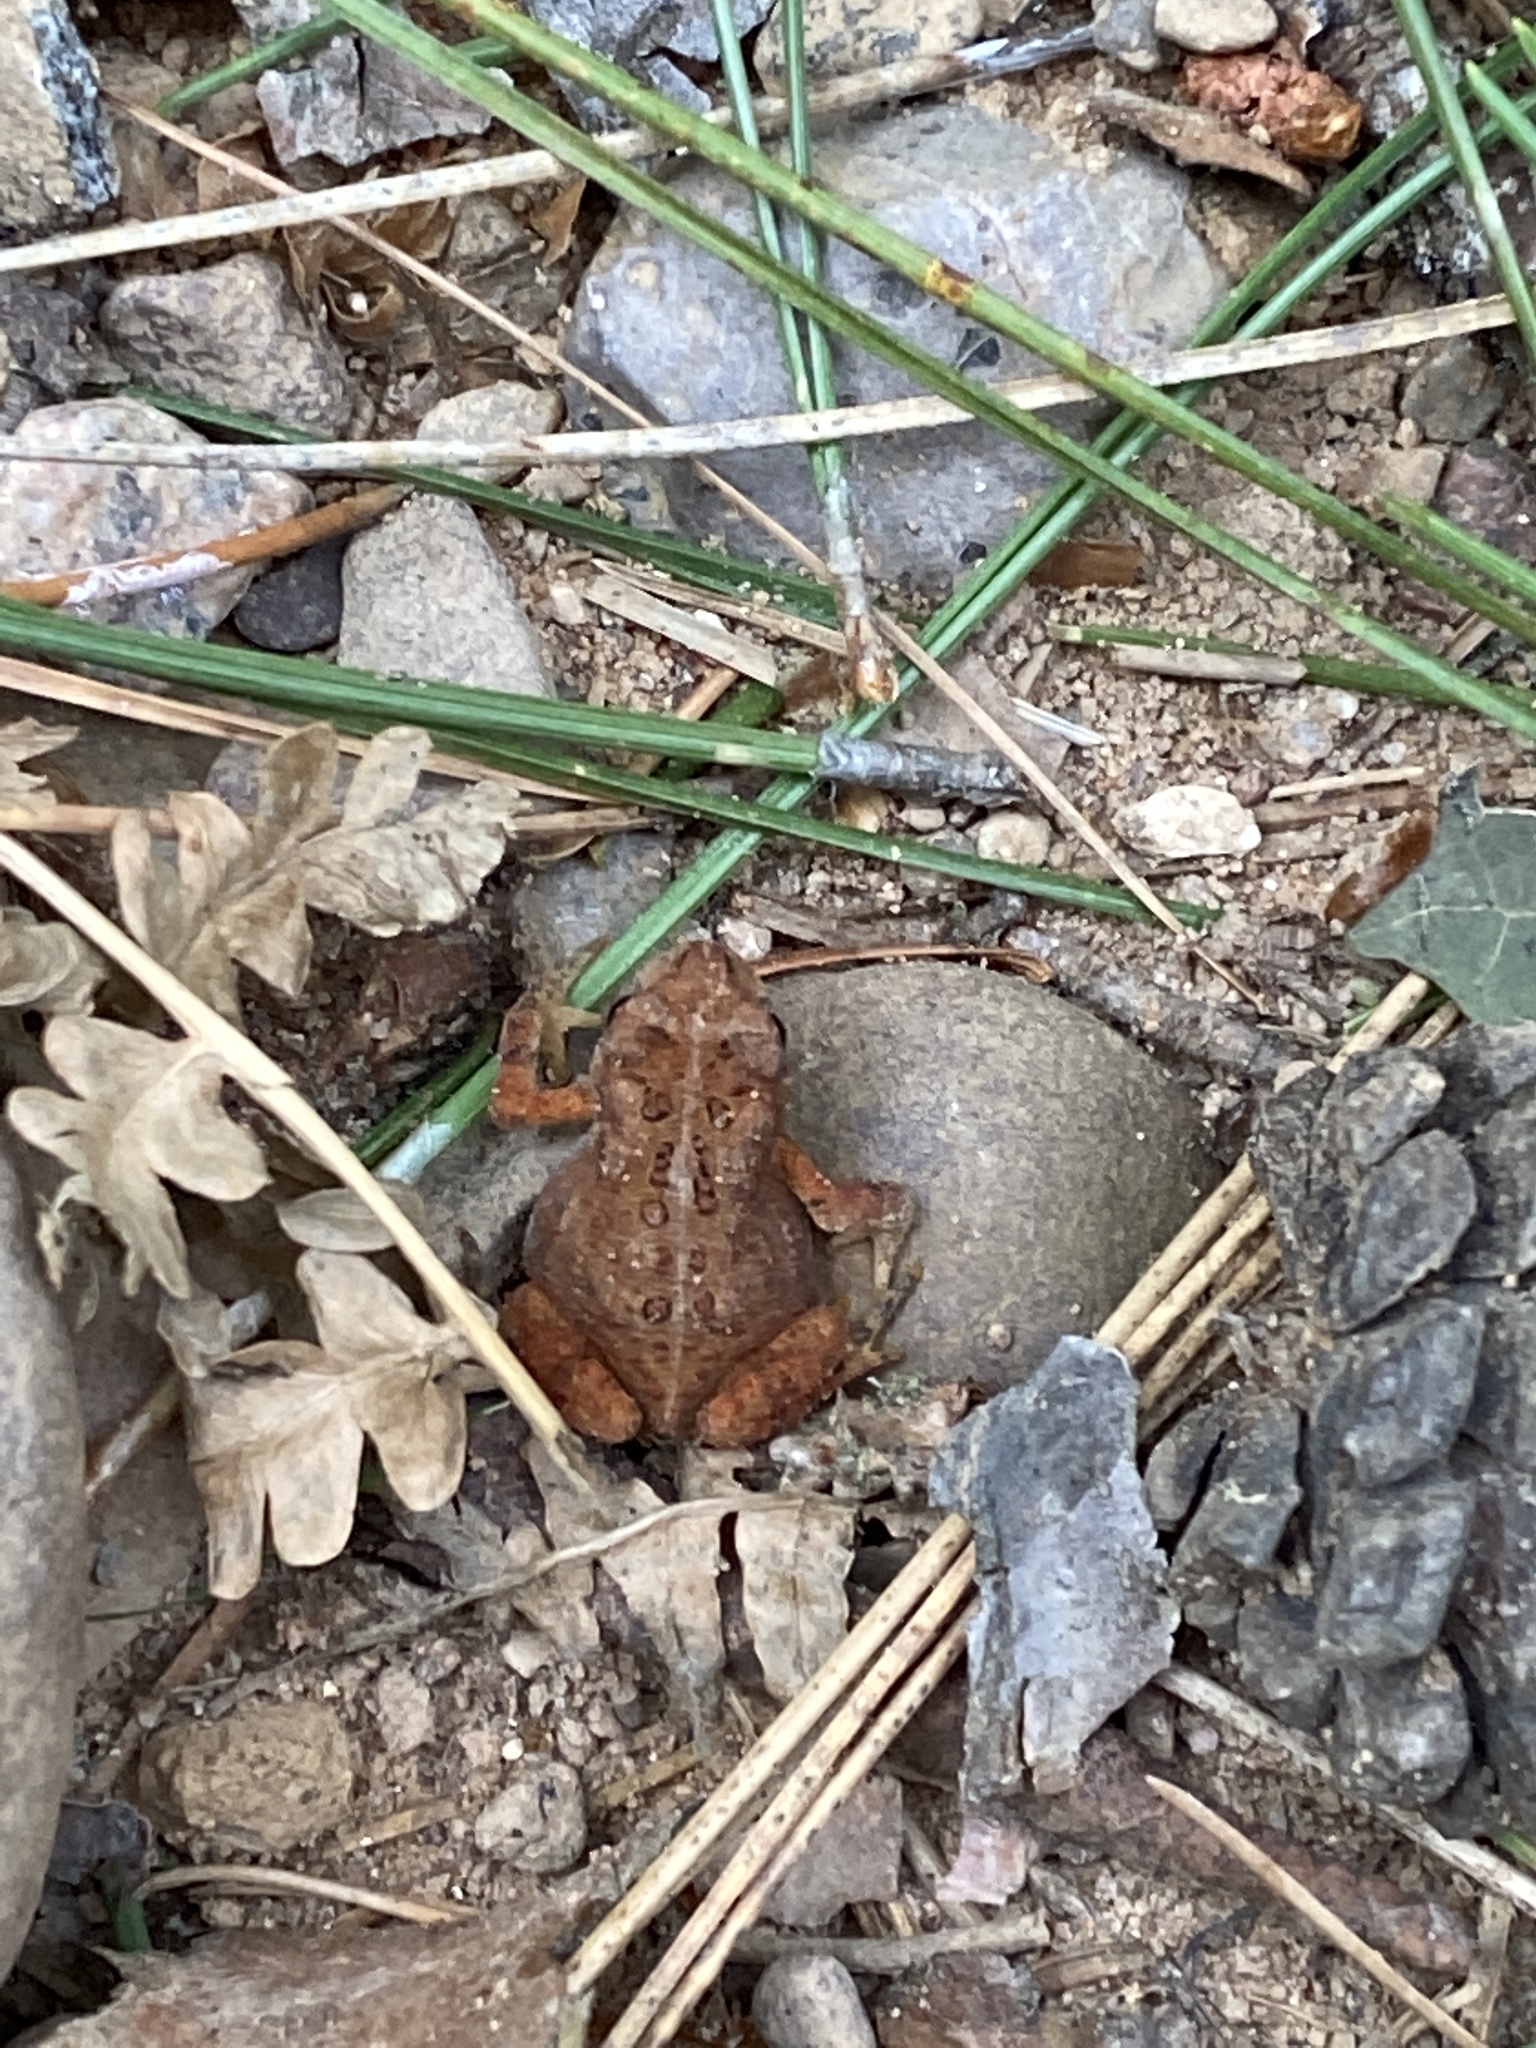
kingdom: Animalia
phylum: Chordata
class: Amphibia
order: Anura
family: Bufonidae
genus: Anaxyrus
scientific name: Anaxyrus americanus
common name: American toad
